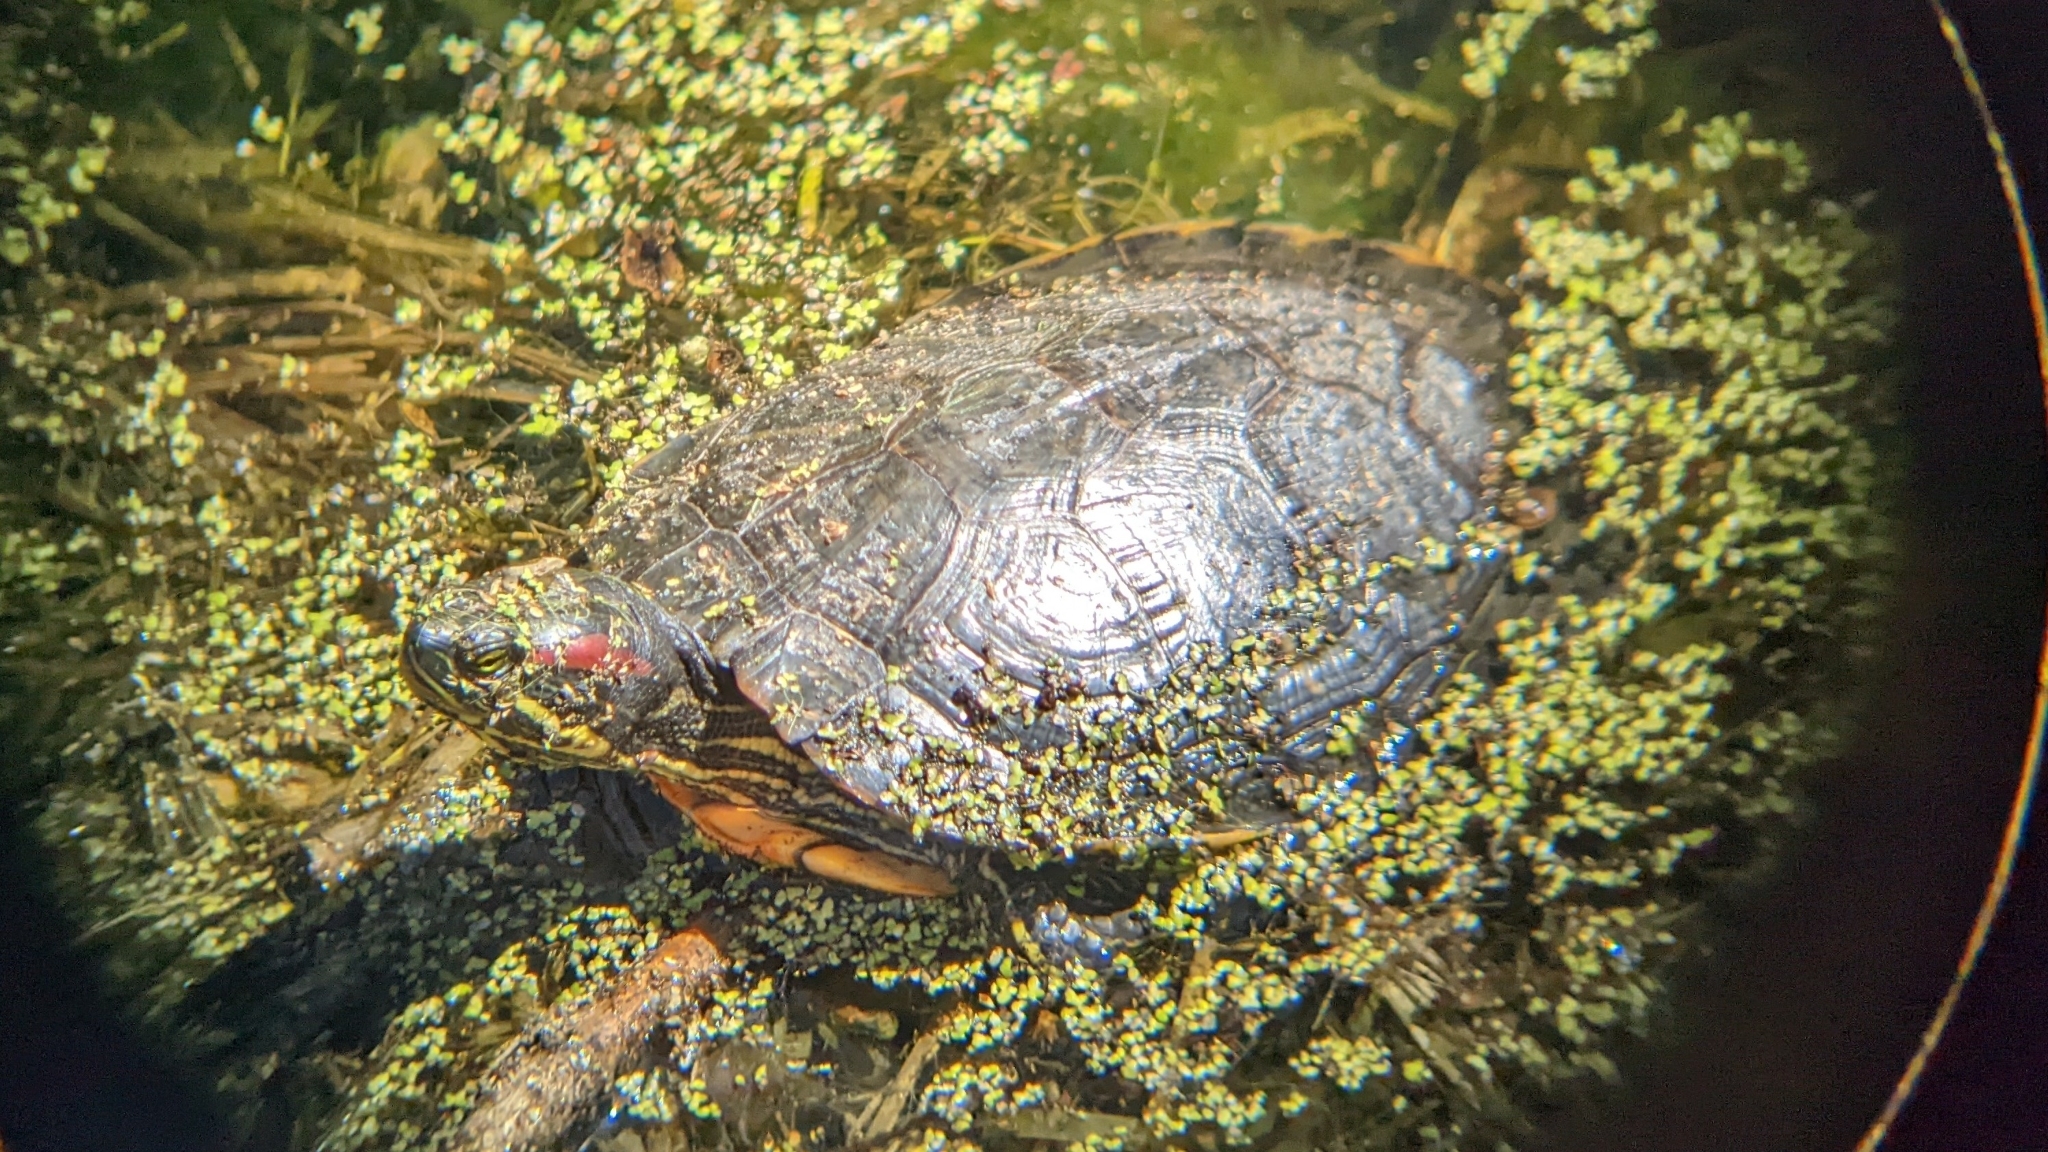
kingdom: Animalia
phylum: Chordata
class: Testudines
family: Emydidae
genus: Trachemys
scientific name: Trachemys scripta
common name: Slider
